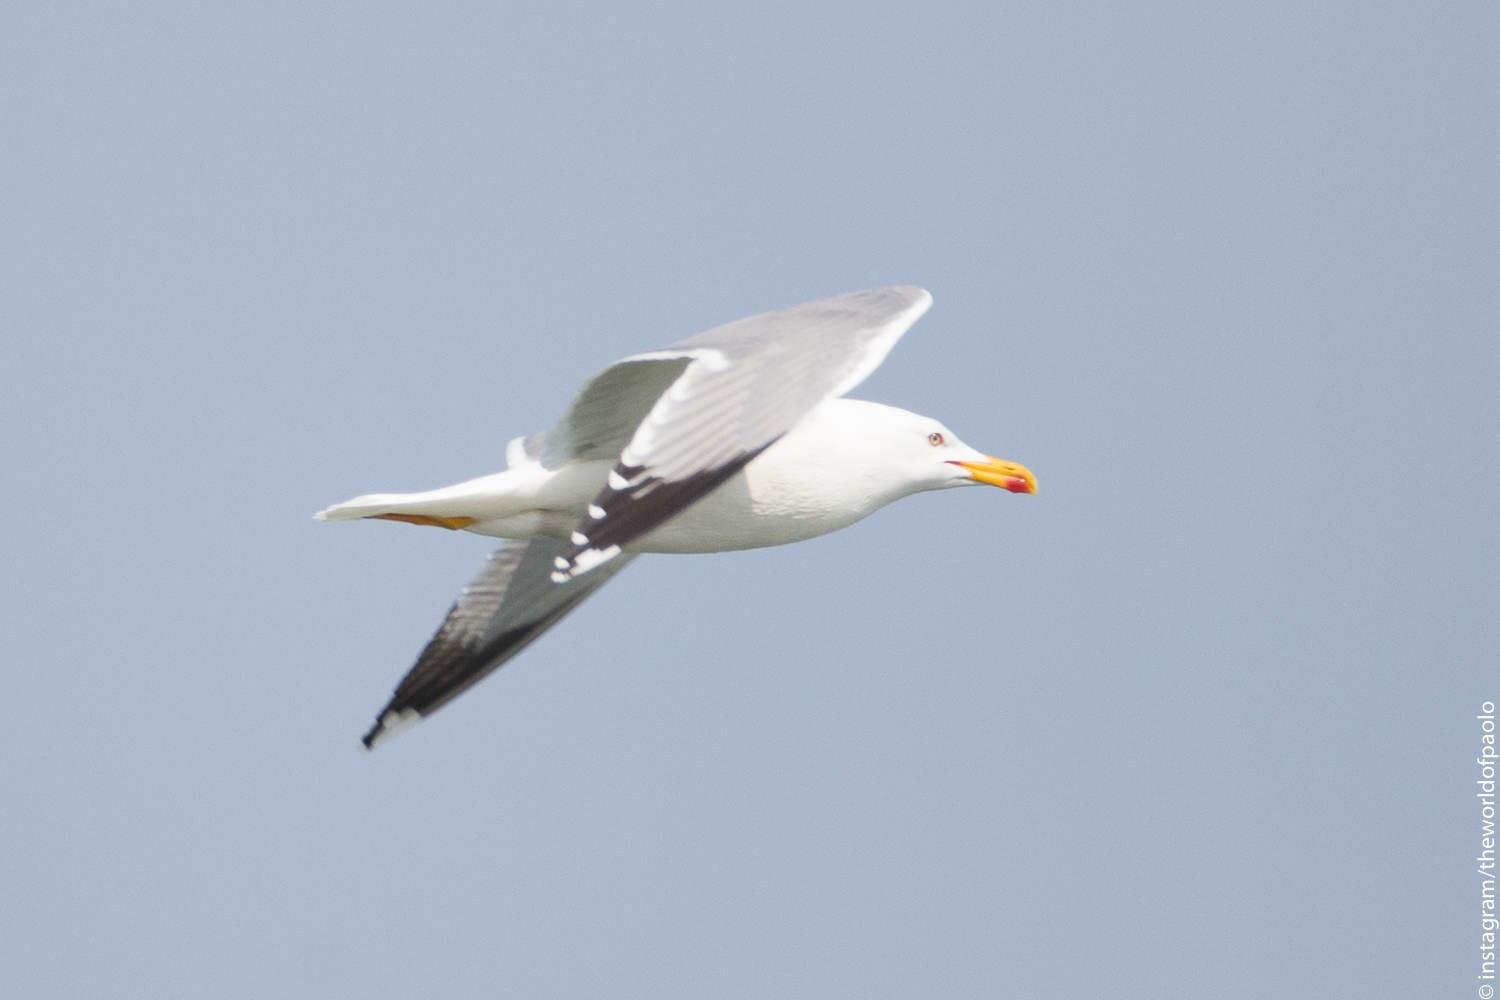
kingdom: Animalia
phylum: Chordata
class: Aves
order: Charadriiformes
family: Laridae
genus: Larus
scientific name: Larus michahellis
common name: Yellow-legged gull
